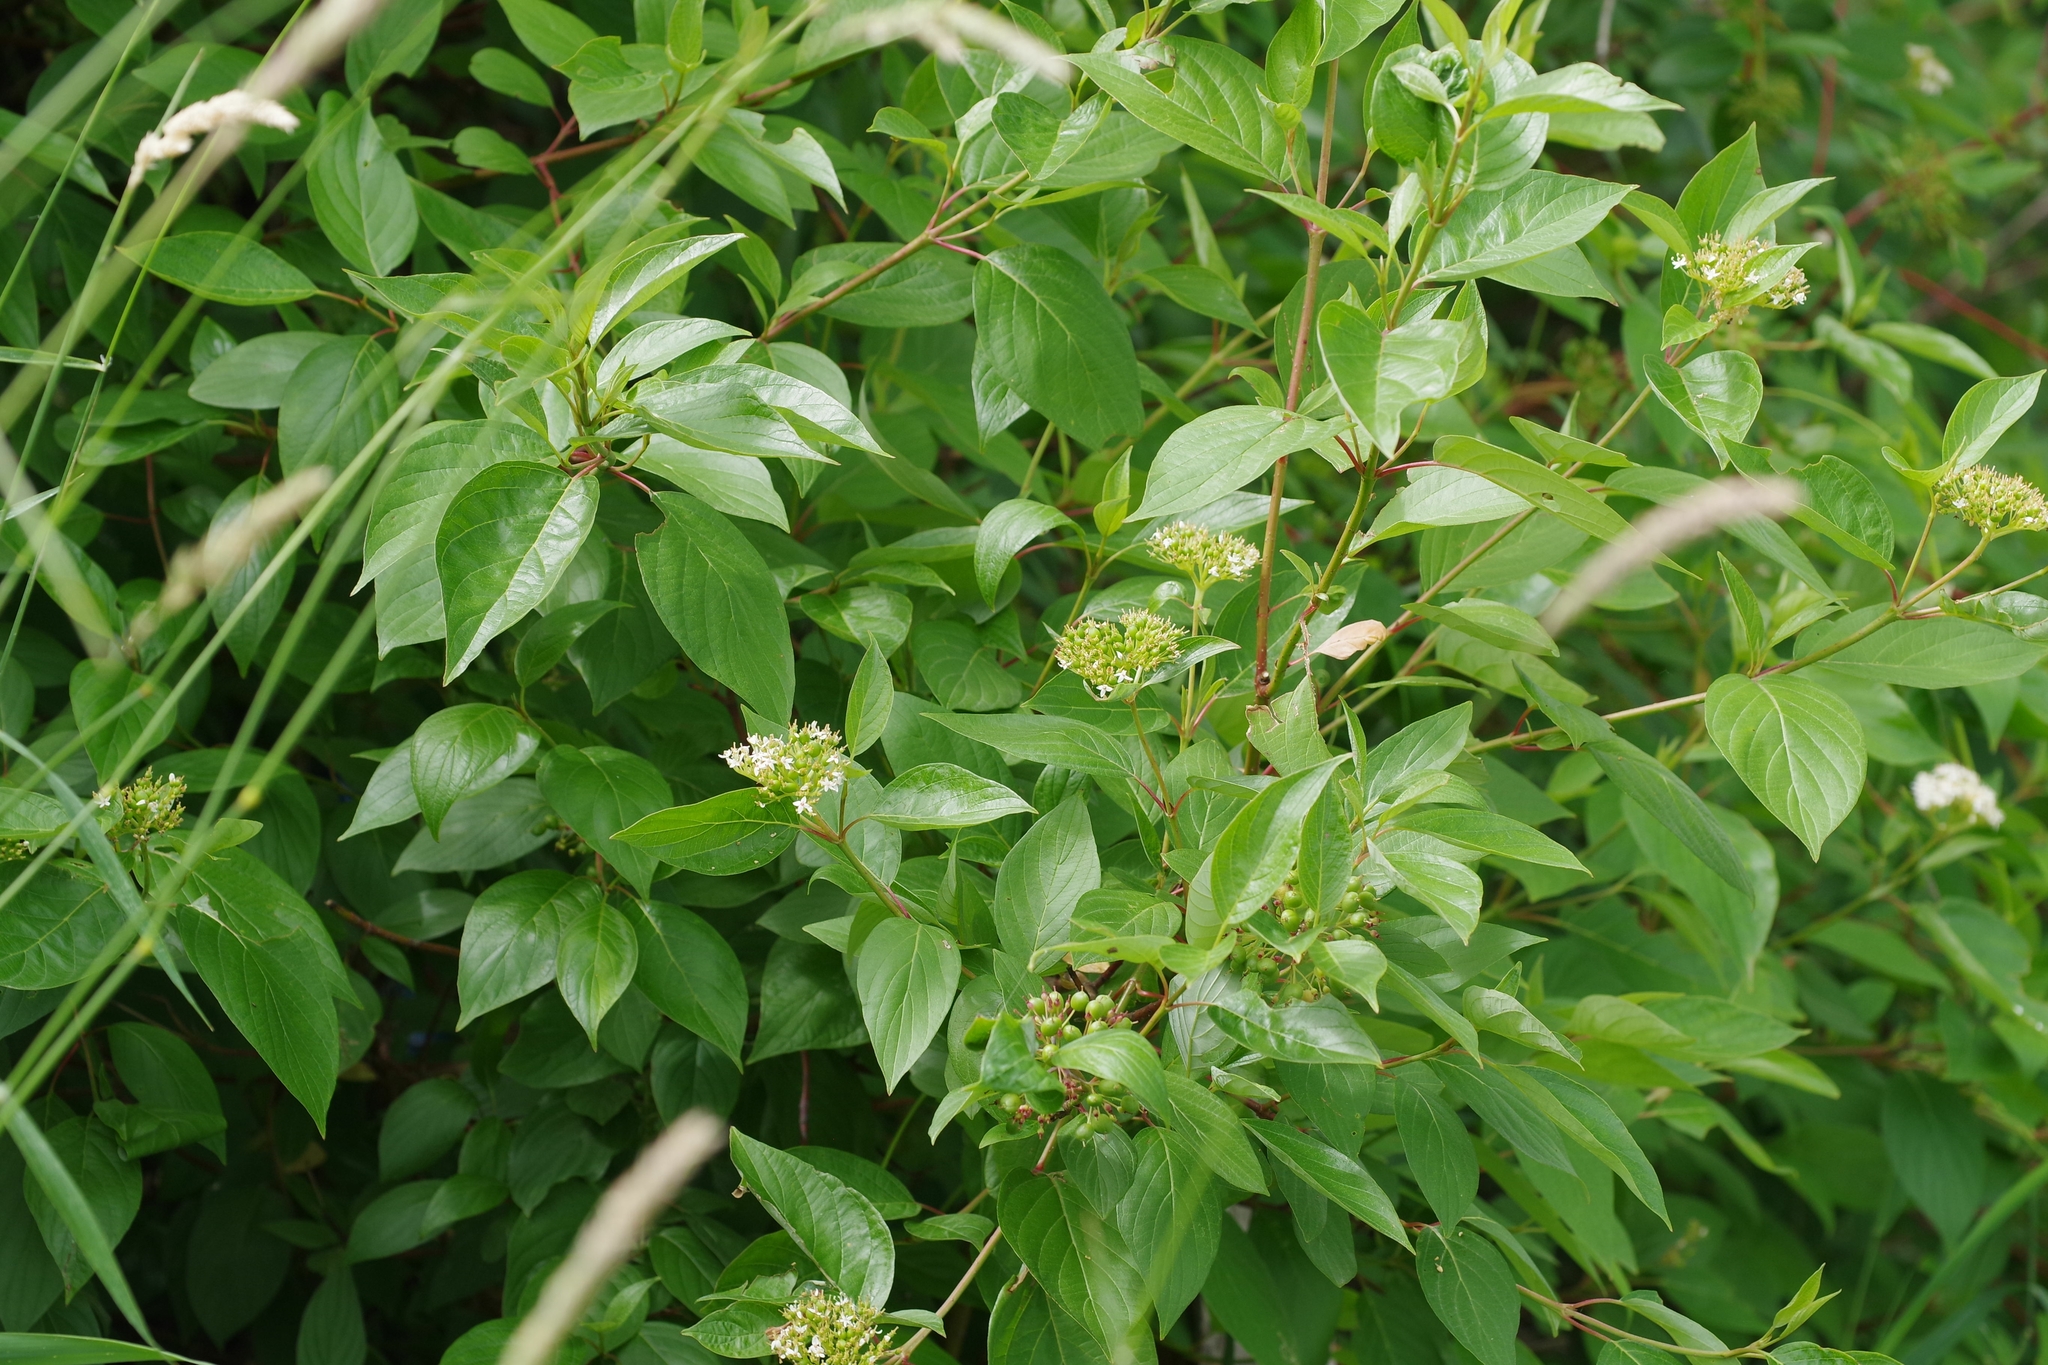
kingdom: Plantae
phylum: Tracheophyta
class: Magnoliopsida
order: Cornales
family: Cornaceae
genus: Cornus
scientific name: Cornus sericea
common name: Red-osier dogwood
